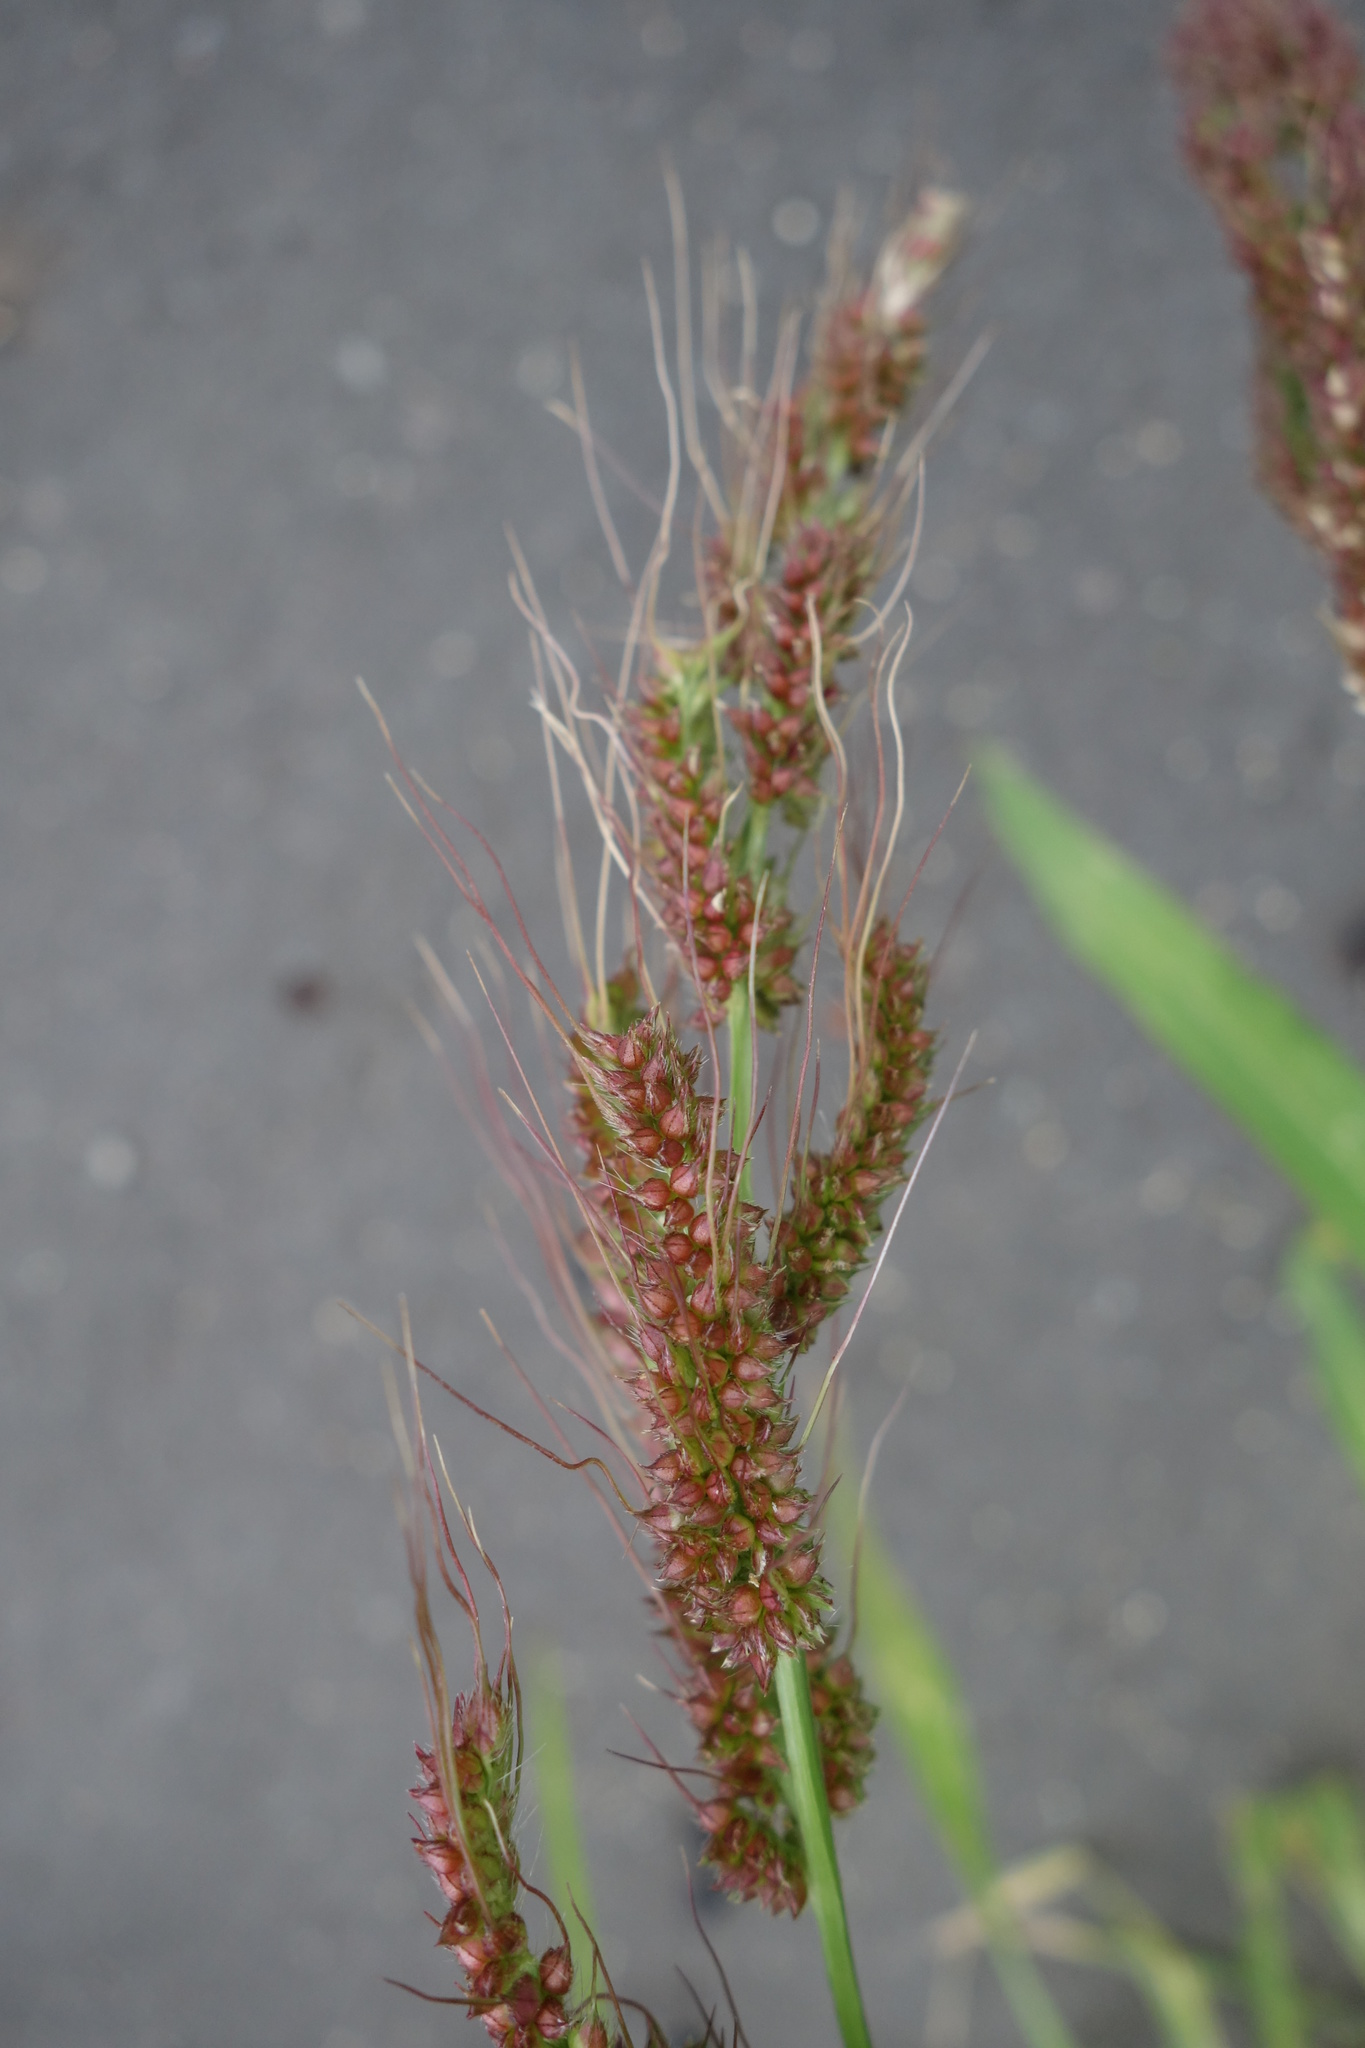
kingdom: Plantae
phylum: Tracheophyta
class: Liliopsida
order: Poales
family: Poaceae
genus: Echinochloa
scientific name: Echinochloa crus-galli
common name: Cockspur
